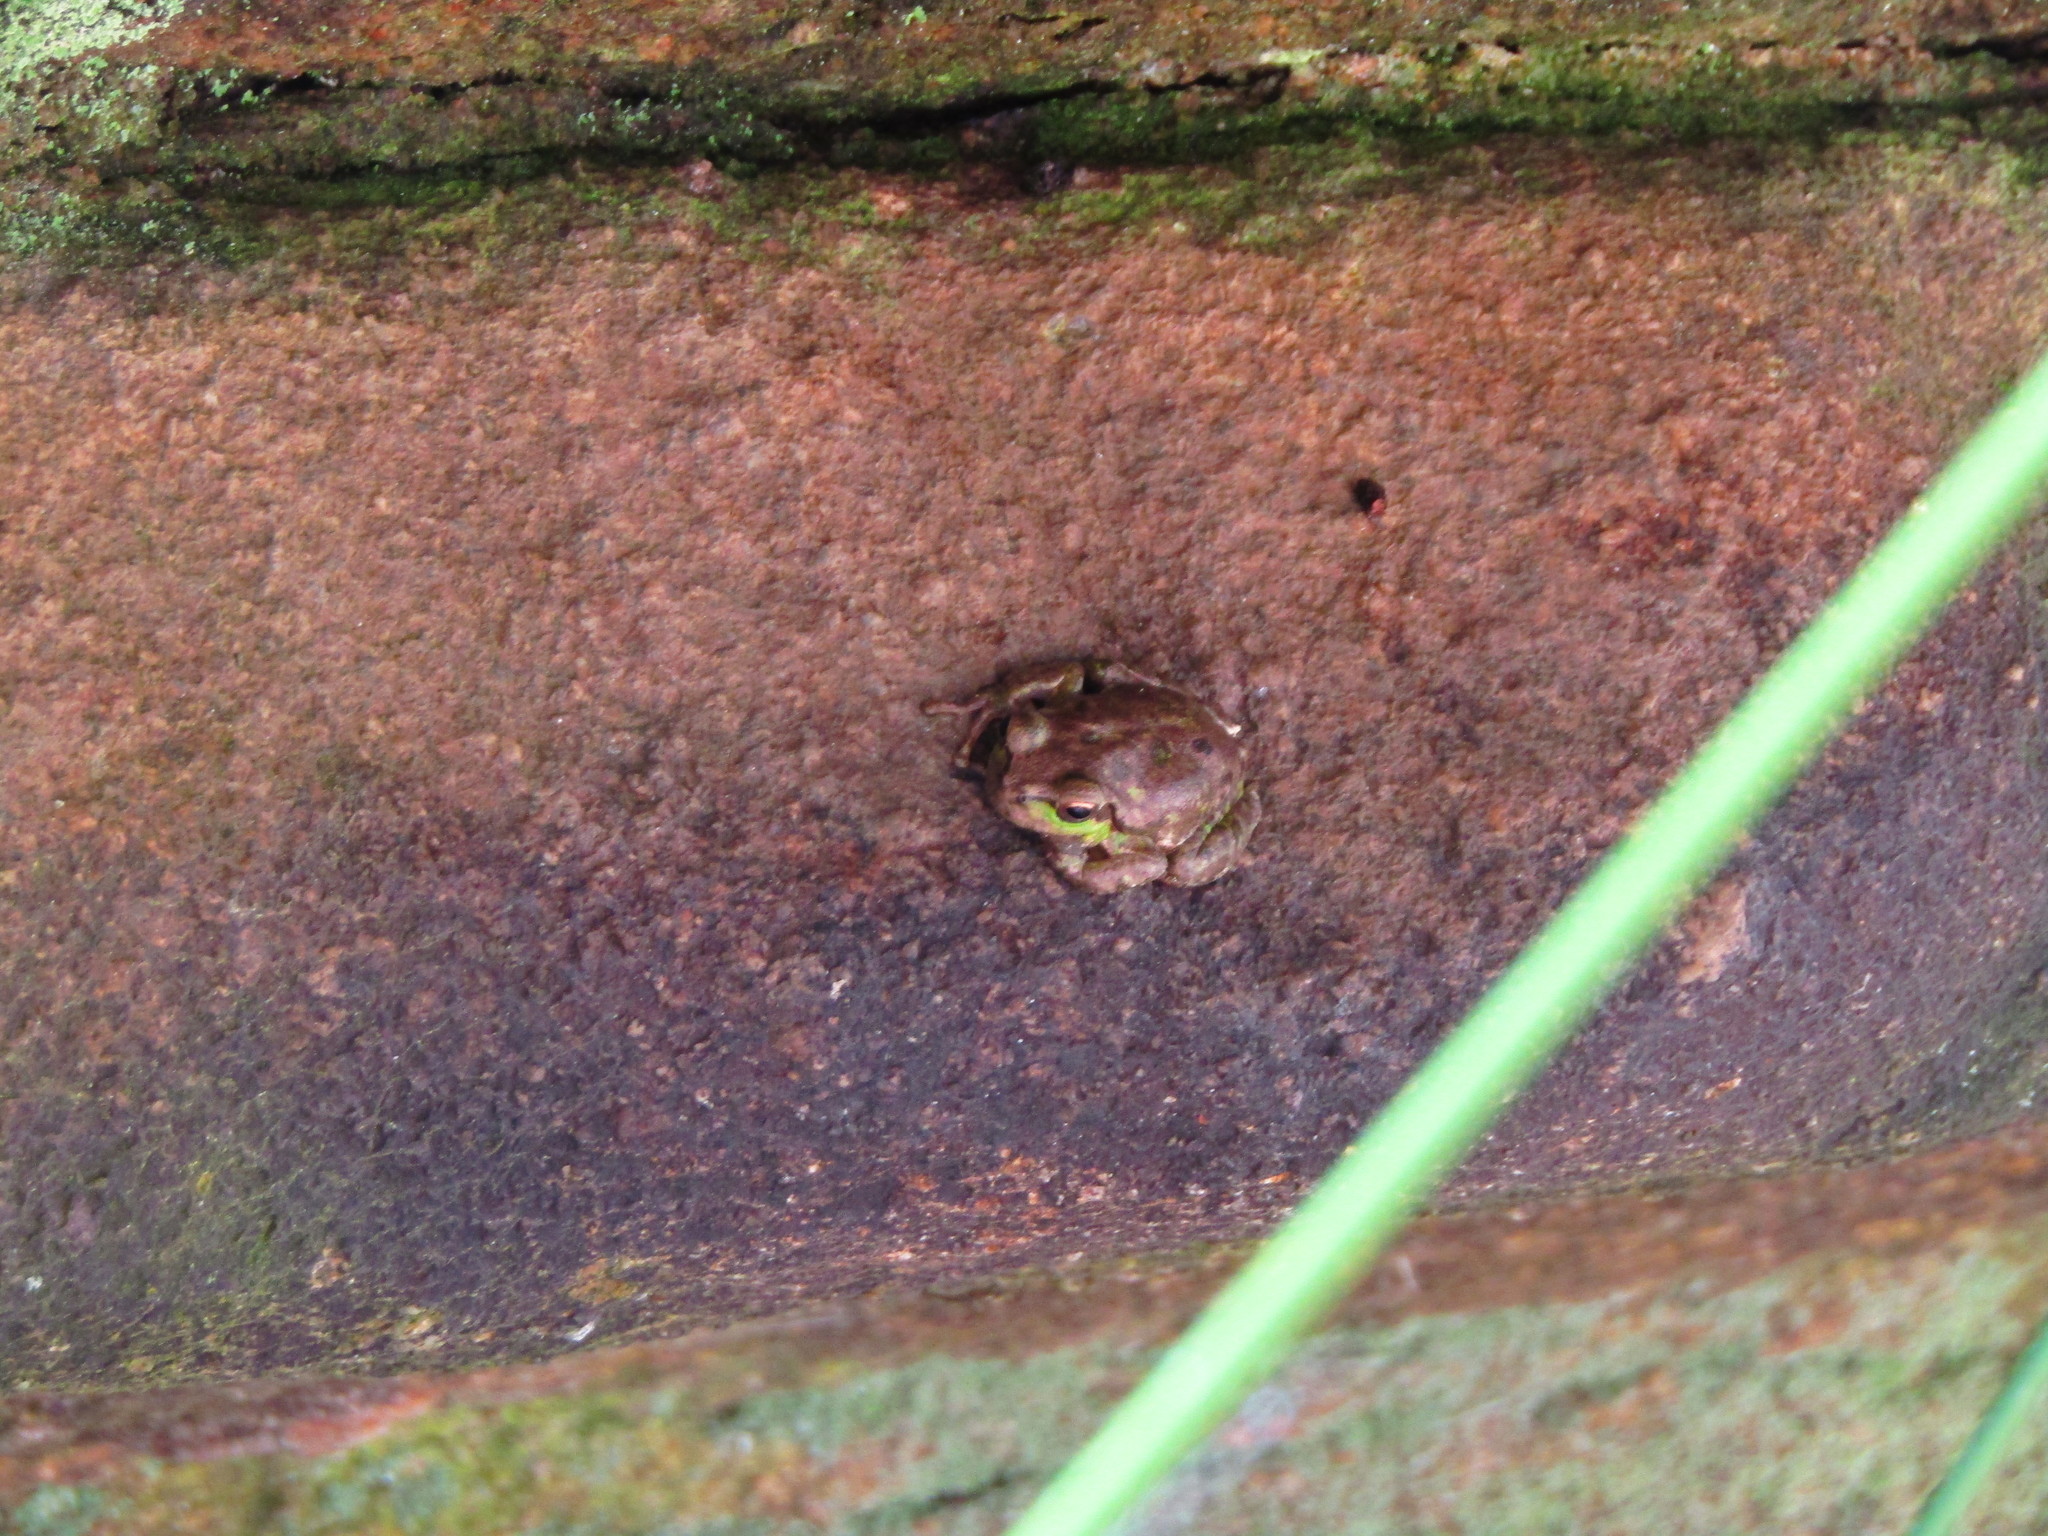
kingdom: Animalia
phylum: Chordata
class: Amphibia
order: Anura
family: Hylidae
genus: Hyla
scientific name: Hyla sarda
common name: Sardinian tree frog
